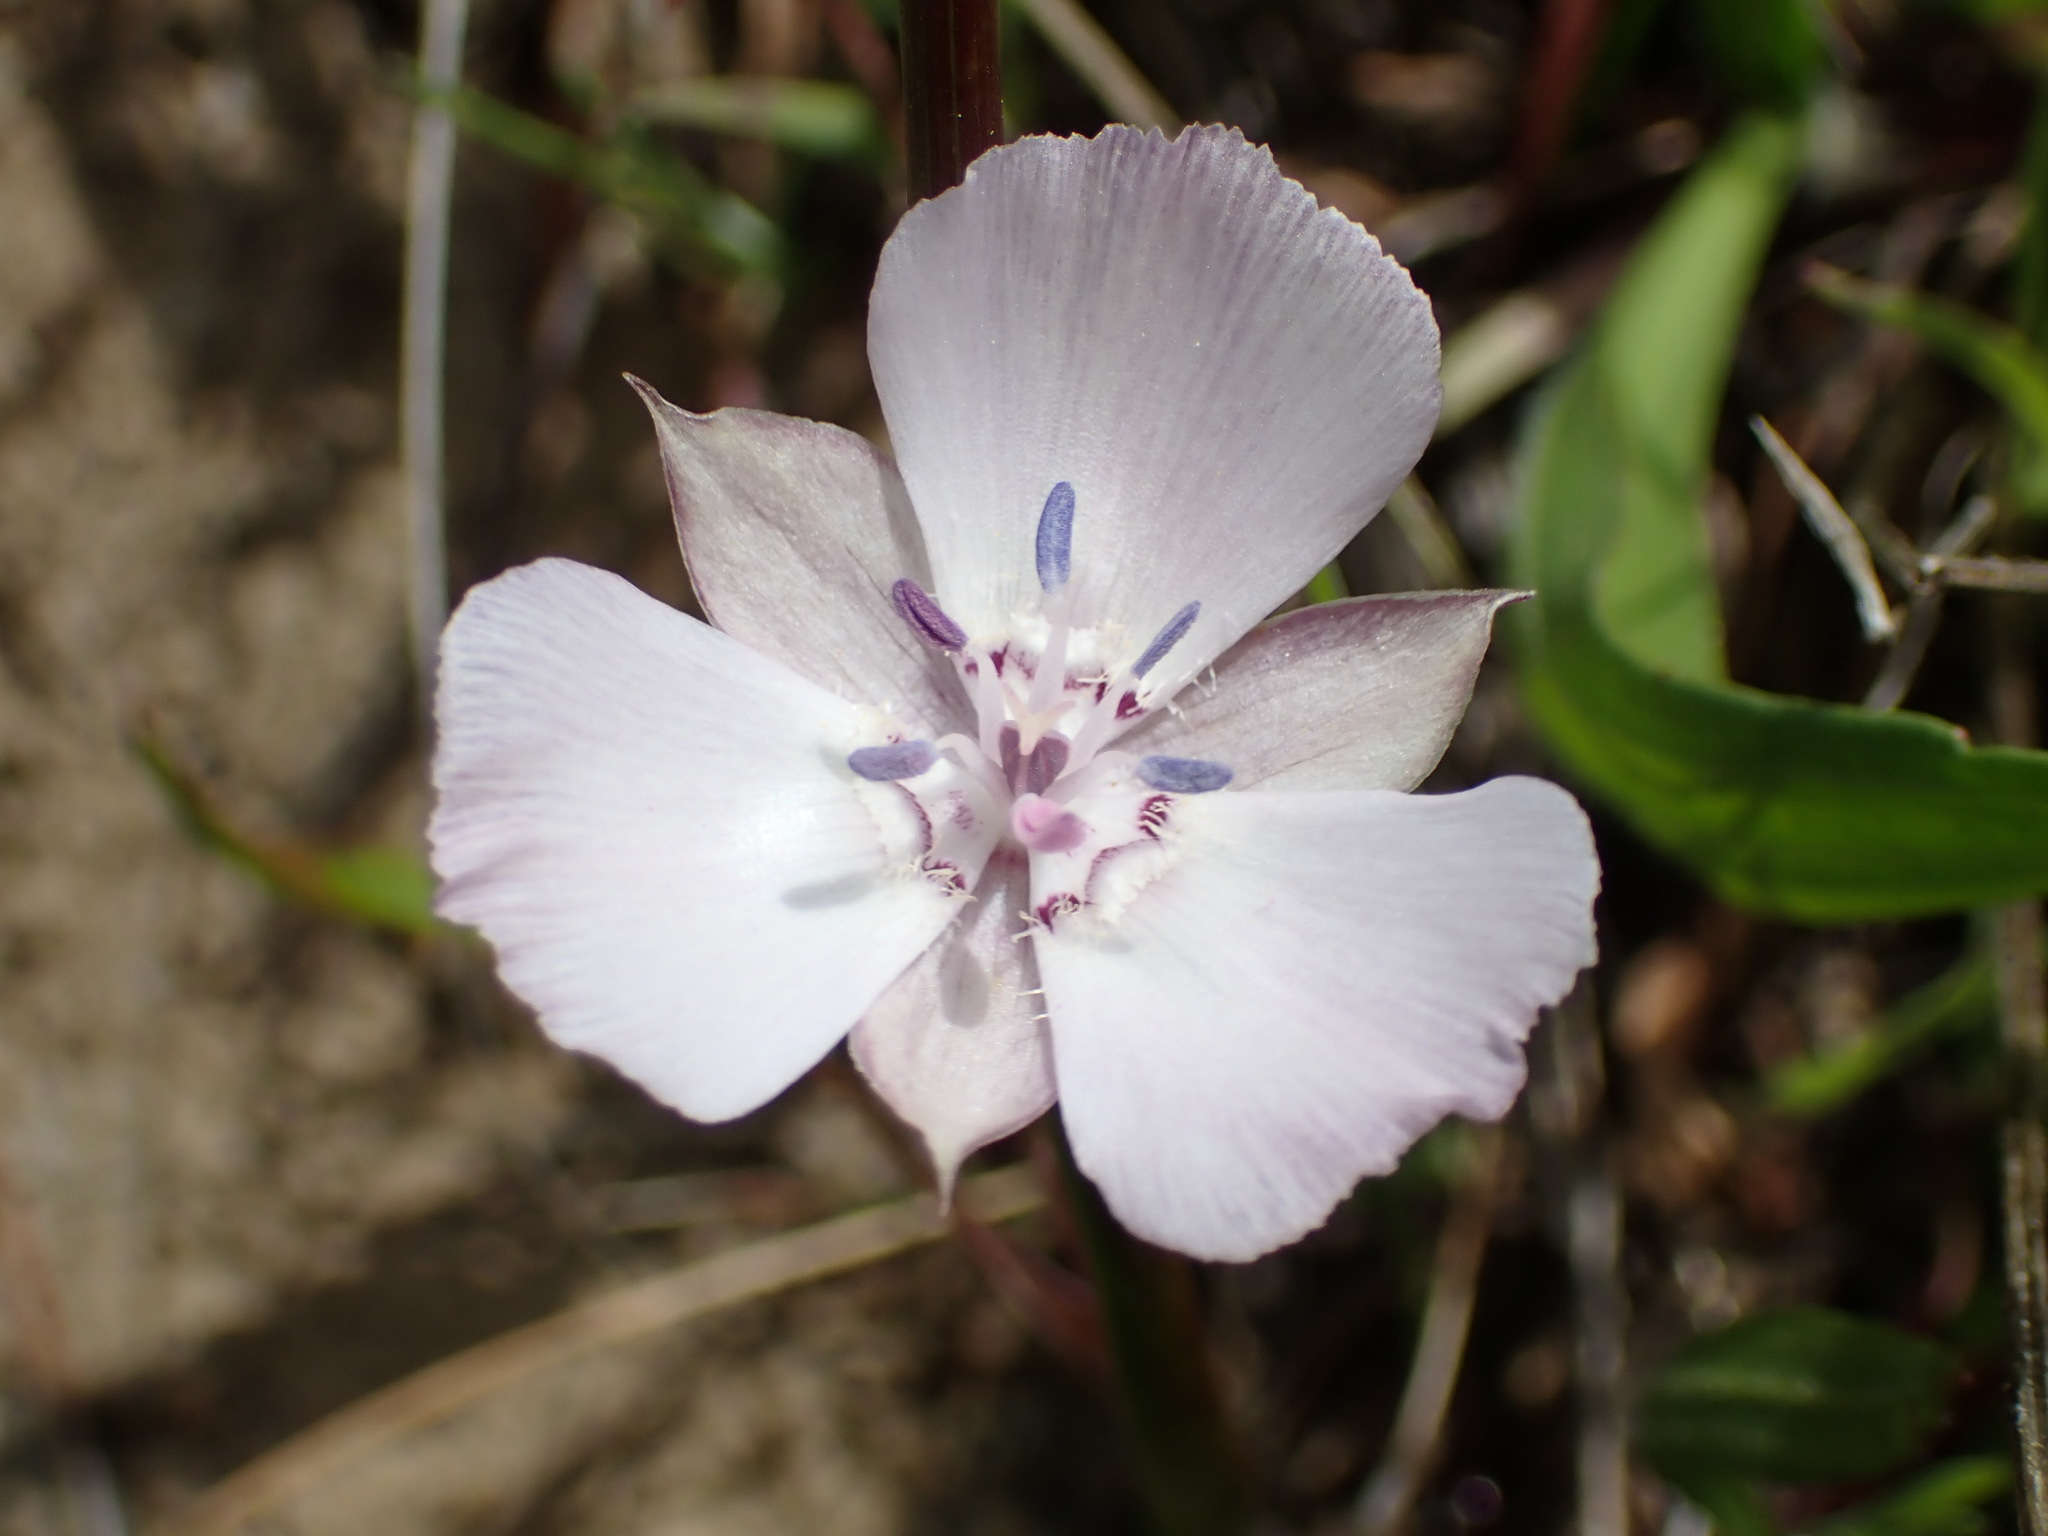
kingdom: Plantae
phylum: Tracheophyta
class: Liliopsida
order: Liliales
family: Liliaceae
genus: Calochortus
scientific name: Calochortus umbellatus
